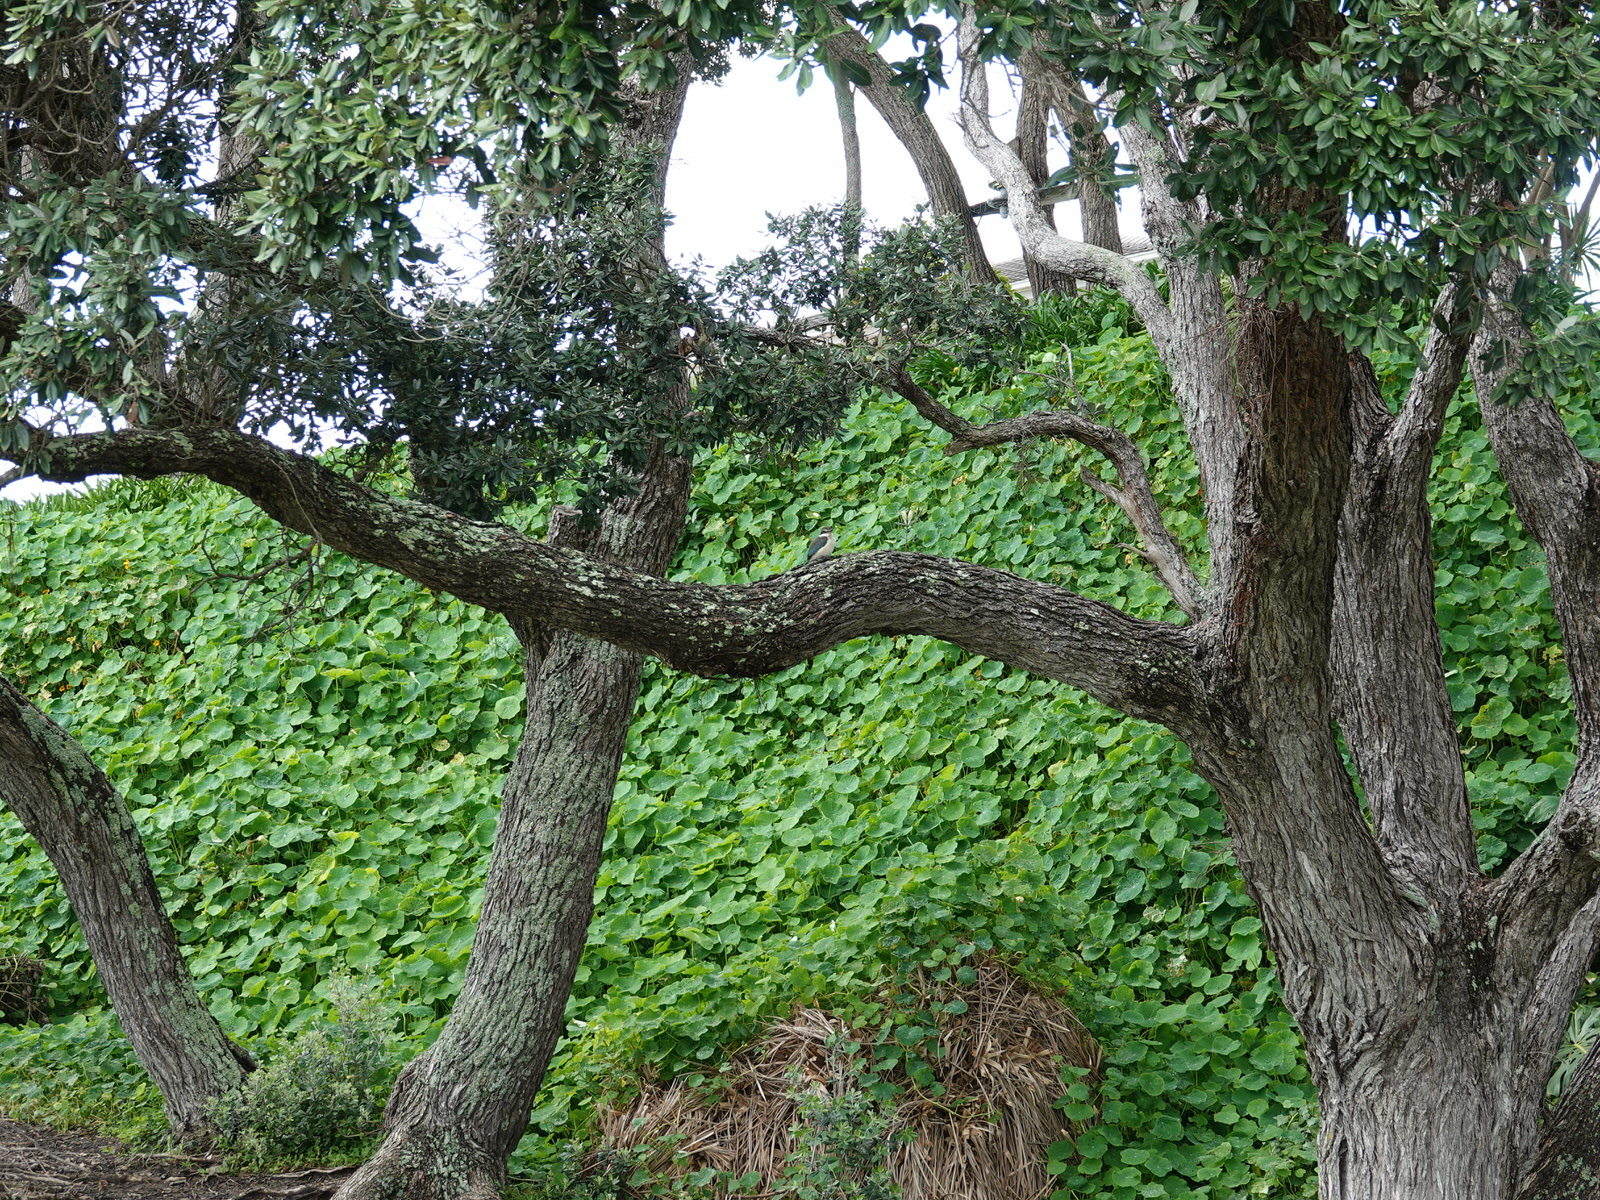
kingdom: Animalia
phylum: Chordata
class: Aves
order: Coraciiformes
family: Alcedinidae
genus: Todiramphus
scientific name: Todiramphus sanctus
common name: Sacred kingfisher
